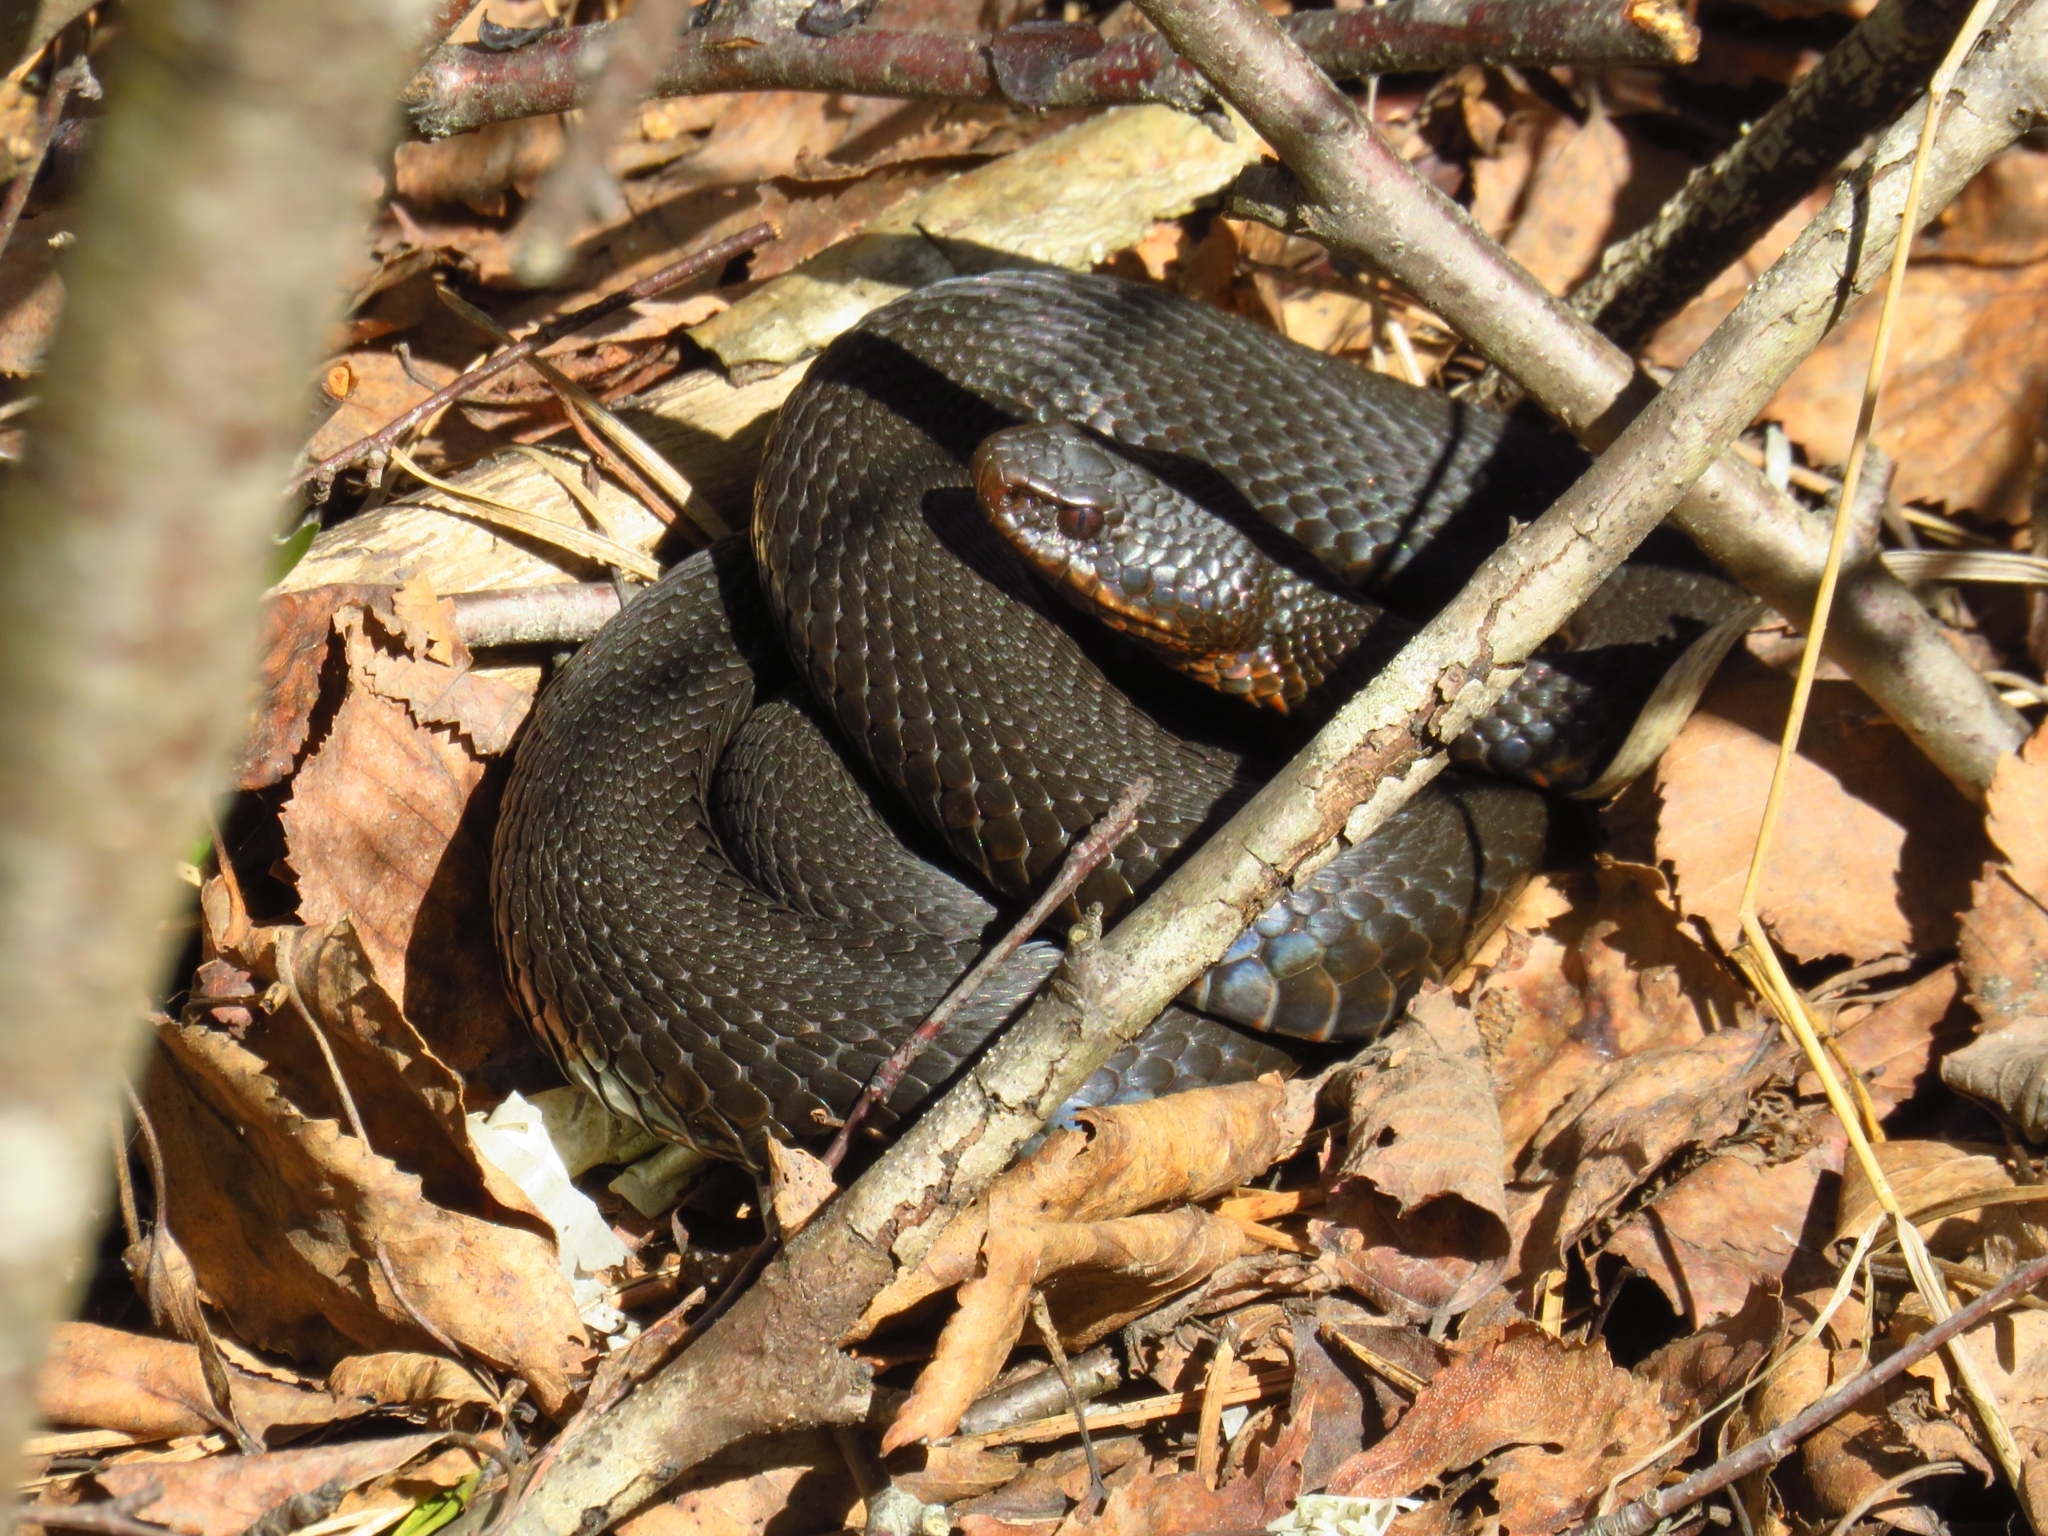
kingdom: Animalia
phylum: Chordata
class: Squamata
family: Viperidae
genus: Vipera
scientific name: Vipera berus
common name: Adder
